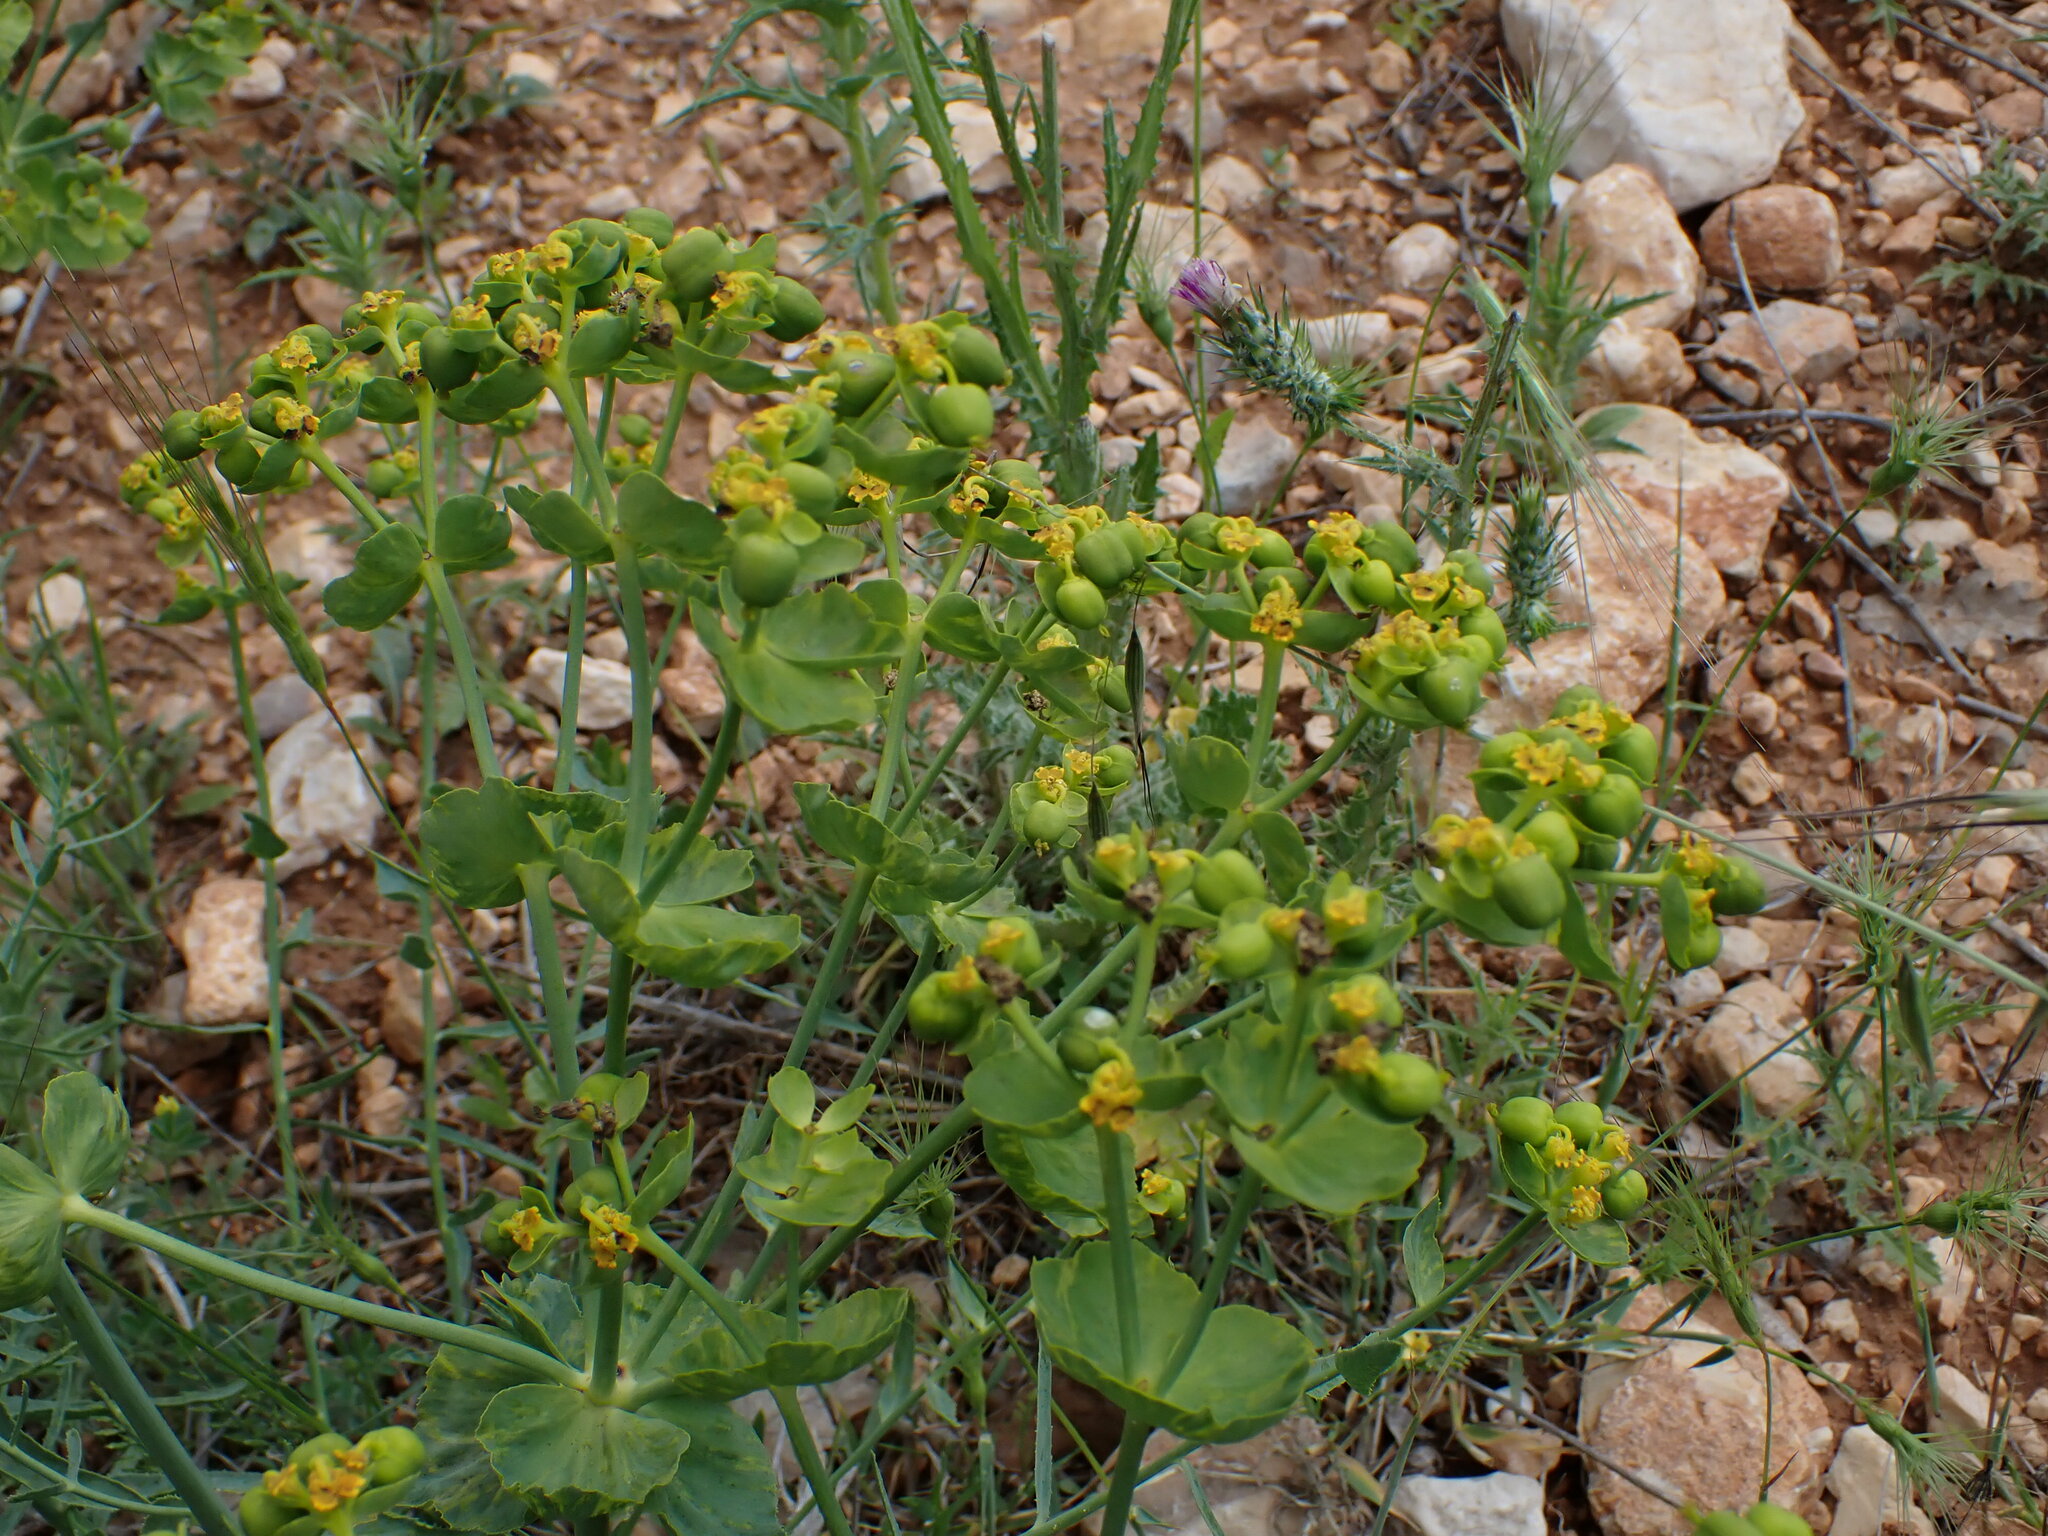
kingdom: Plantae
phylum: Tracheophyta
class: Magnoliopsida
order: Malpighiales
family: Euphorbiaceae
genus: Euphorbia
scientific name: Euphorbia serrata
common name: Serrate spurge
